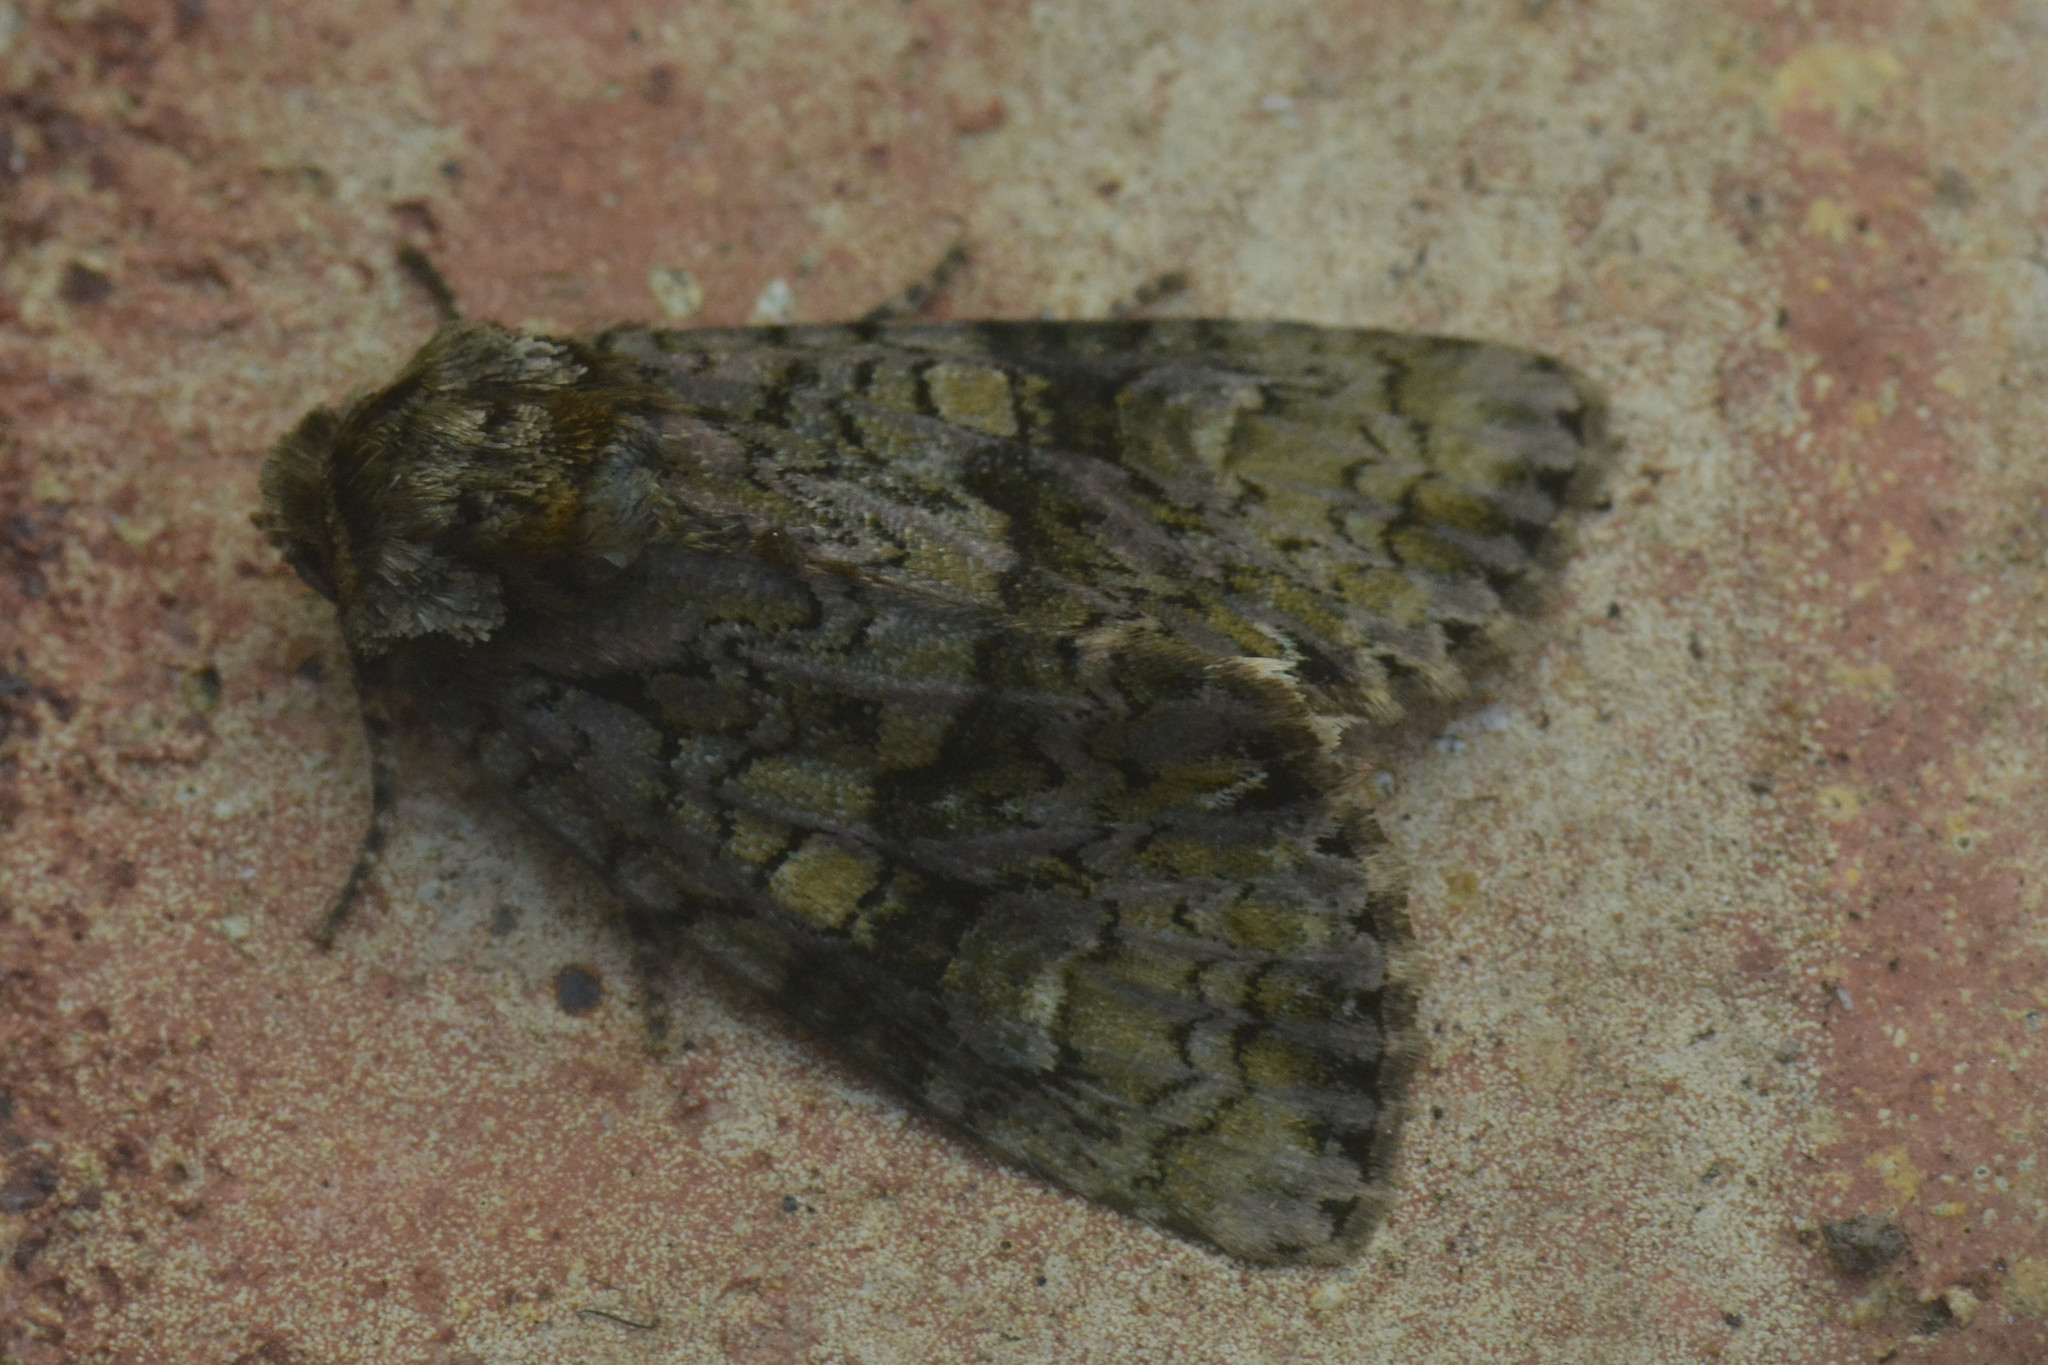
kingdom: Animalia
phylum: Arthropoda
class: Insecta
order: Lepidoptera
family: Noctuidae
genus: Craniophora
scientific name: Craniophora ligustri
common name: Coronet
